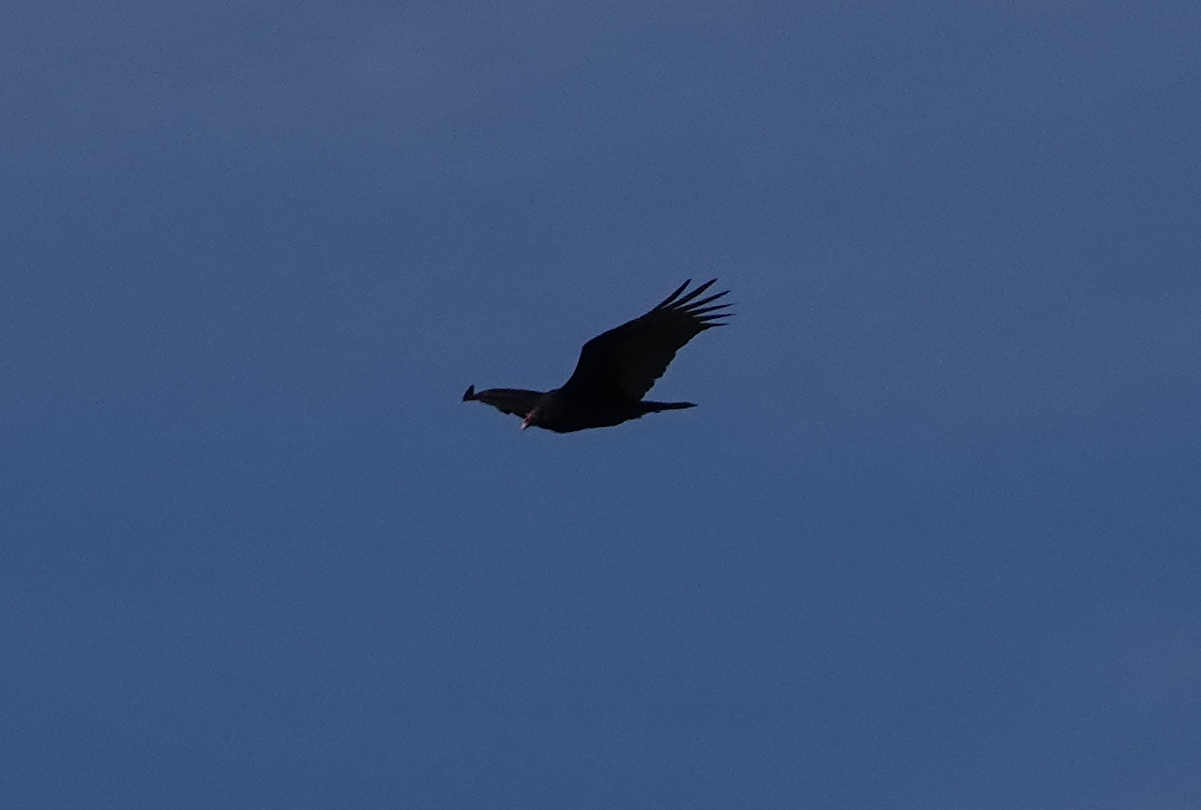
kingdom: Animalia
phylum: Chordata
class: Aves
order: Accipitriformes
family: Cathartidae
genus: Cathartes
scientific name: Cathartes aura
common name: Turkey vulture
